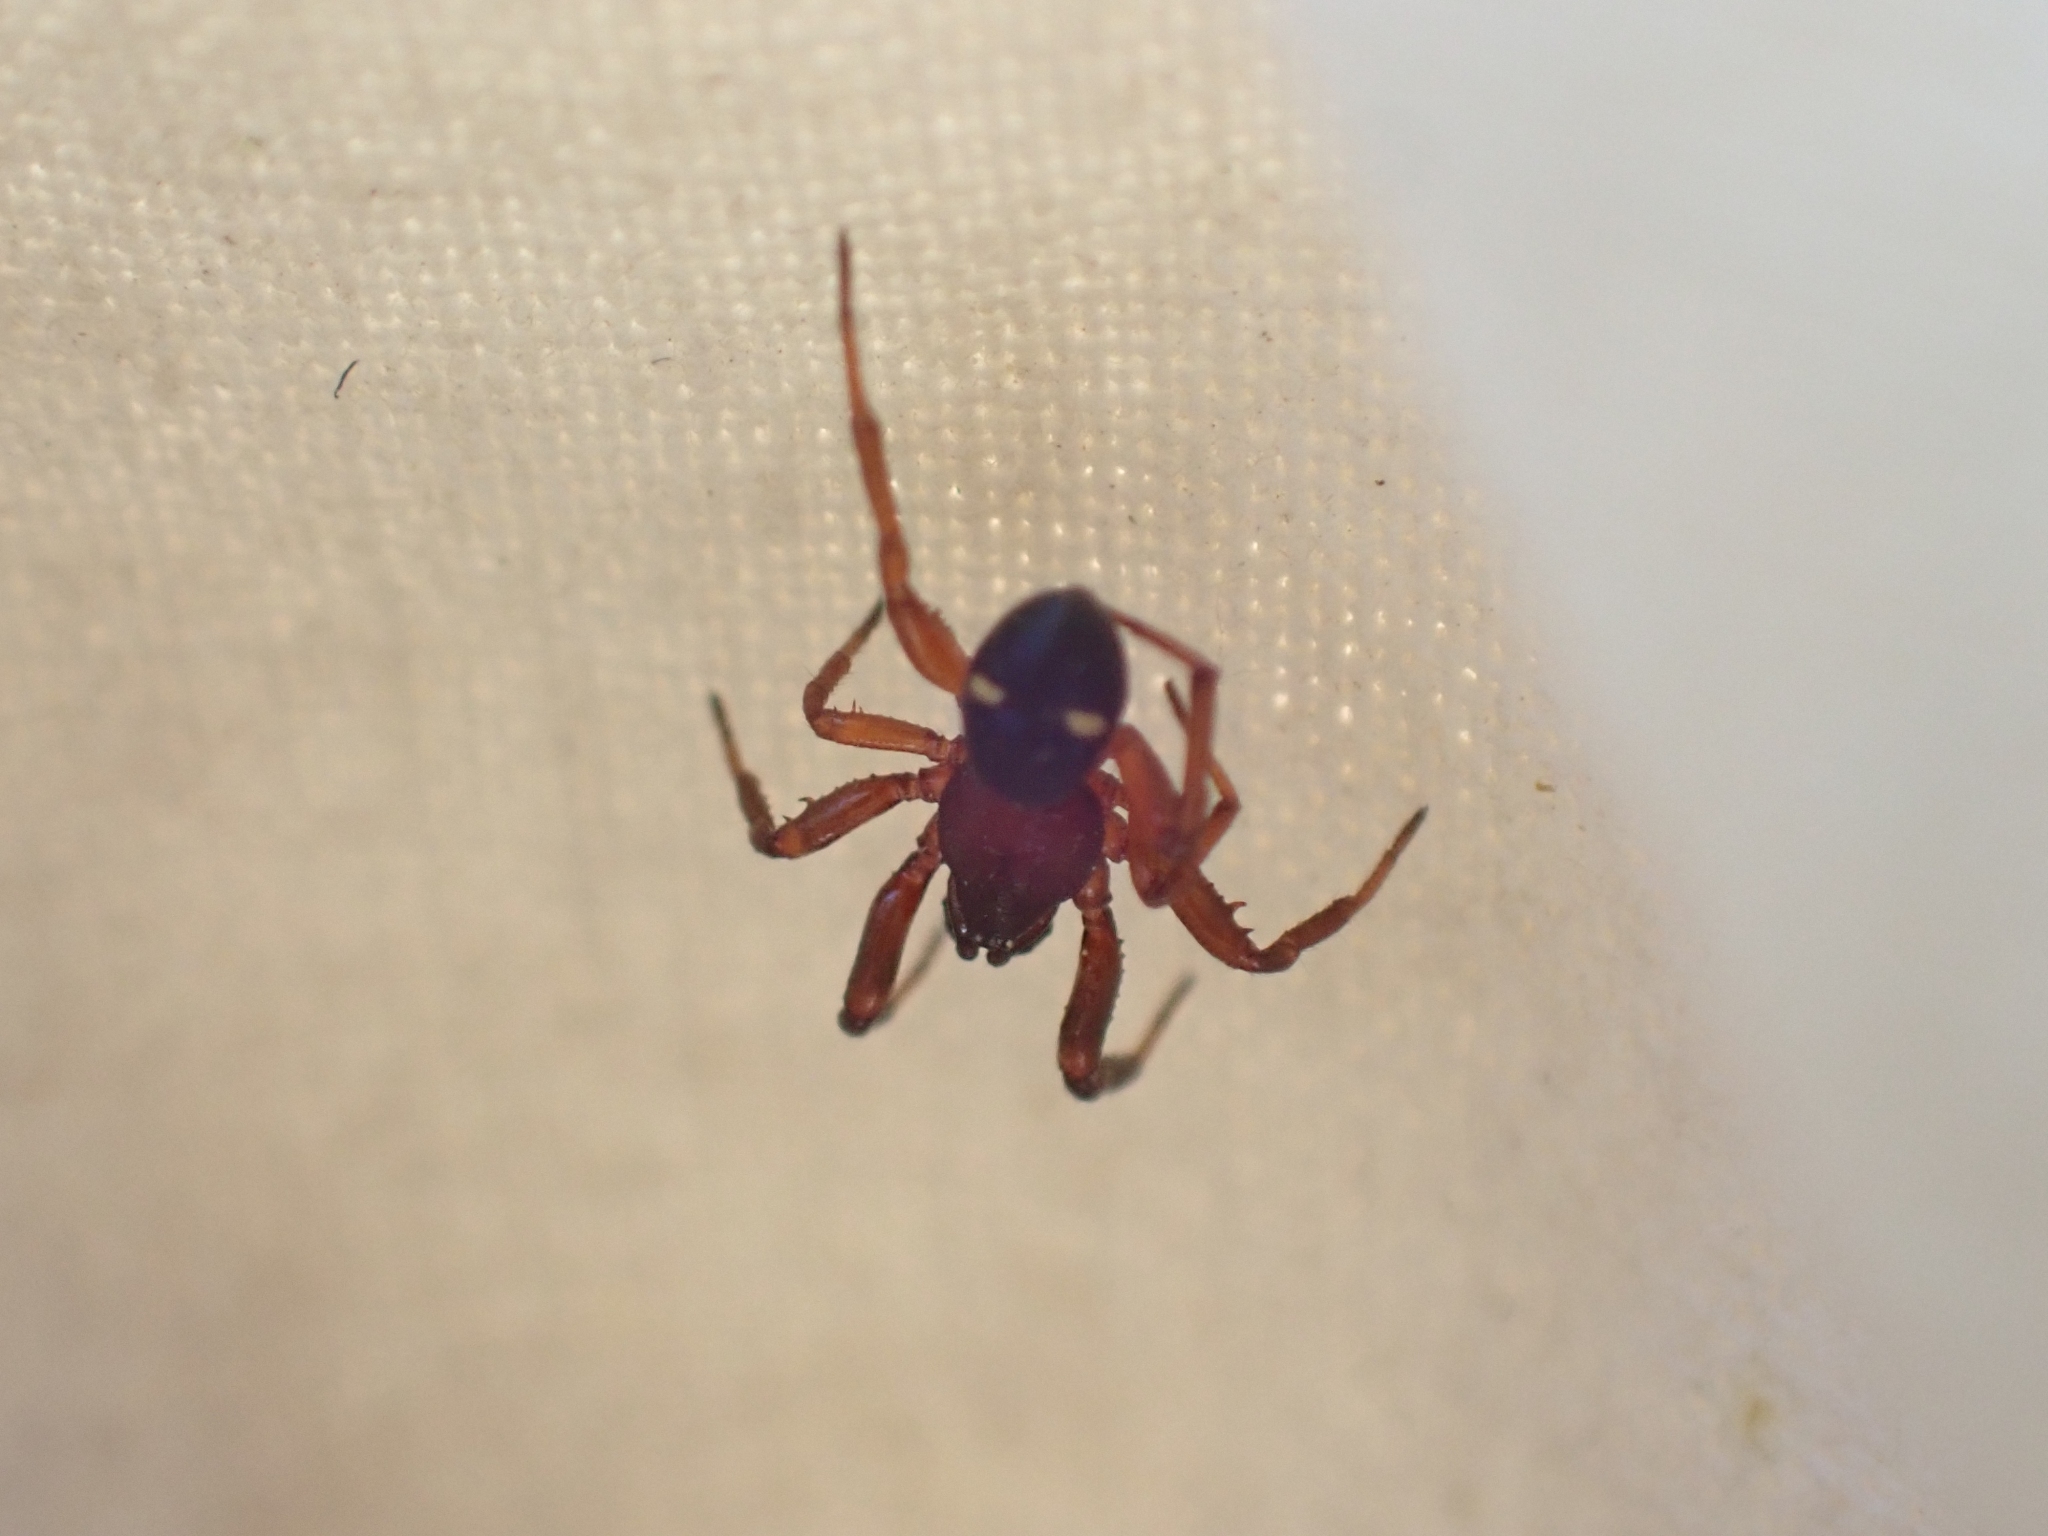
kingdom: Animalia
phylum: Arthropoda
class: Arachnida
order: Araneae
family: Theridiidae
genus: Asagena
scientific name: Asagena americana
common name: Two-spotted cobweb spider
